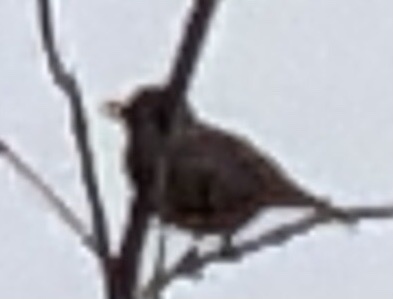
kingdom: Animalia
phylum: Chordata
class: Aves
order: Passeriformes
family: Turdidae
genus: Turdus
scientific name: Turdus migratorius
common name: American robin
